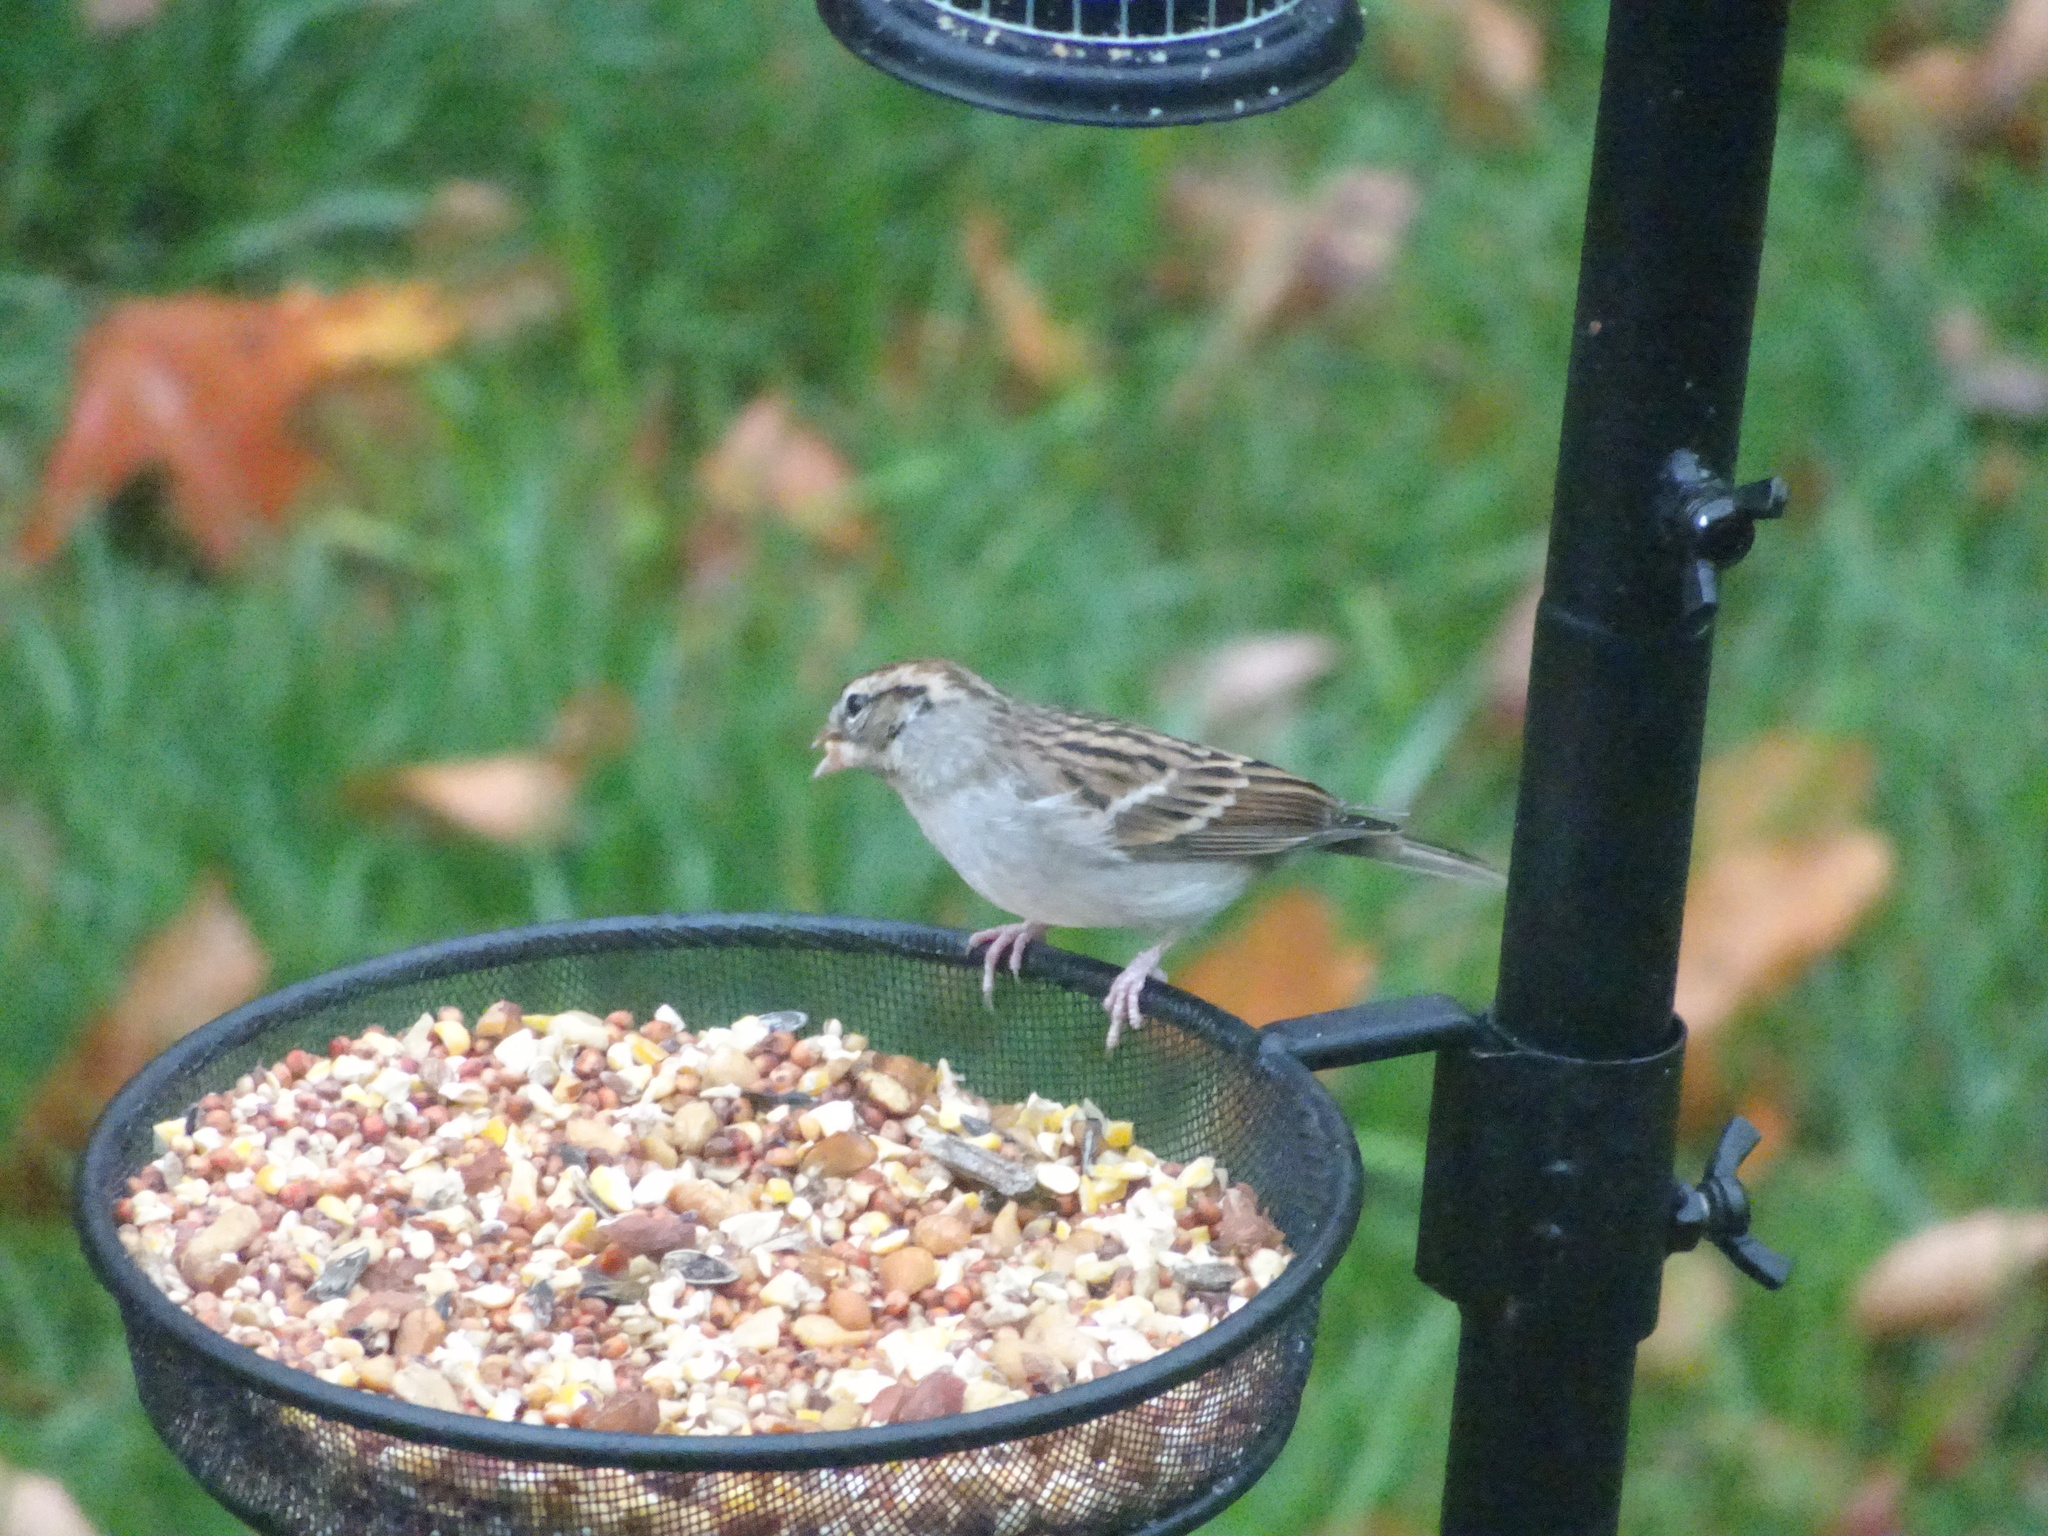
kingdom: Animalia
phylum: Chordata
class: Aves
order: Passeriformes
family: Passerellidae
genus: Spizella
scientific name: Spizella passerina
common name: Chipping sparrow
